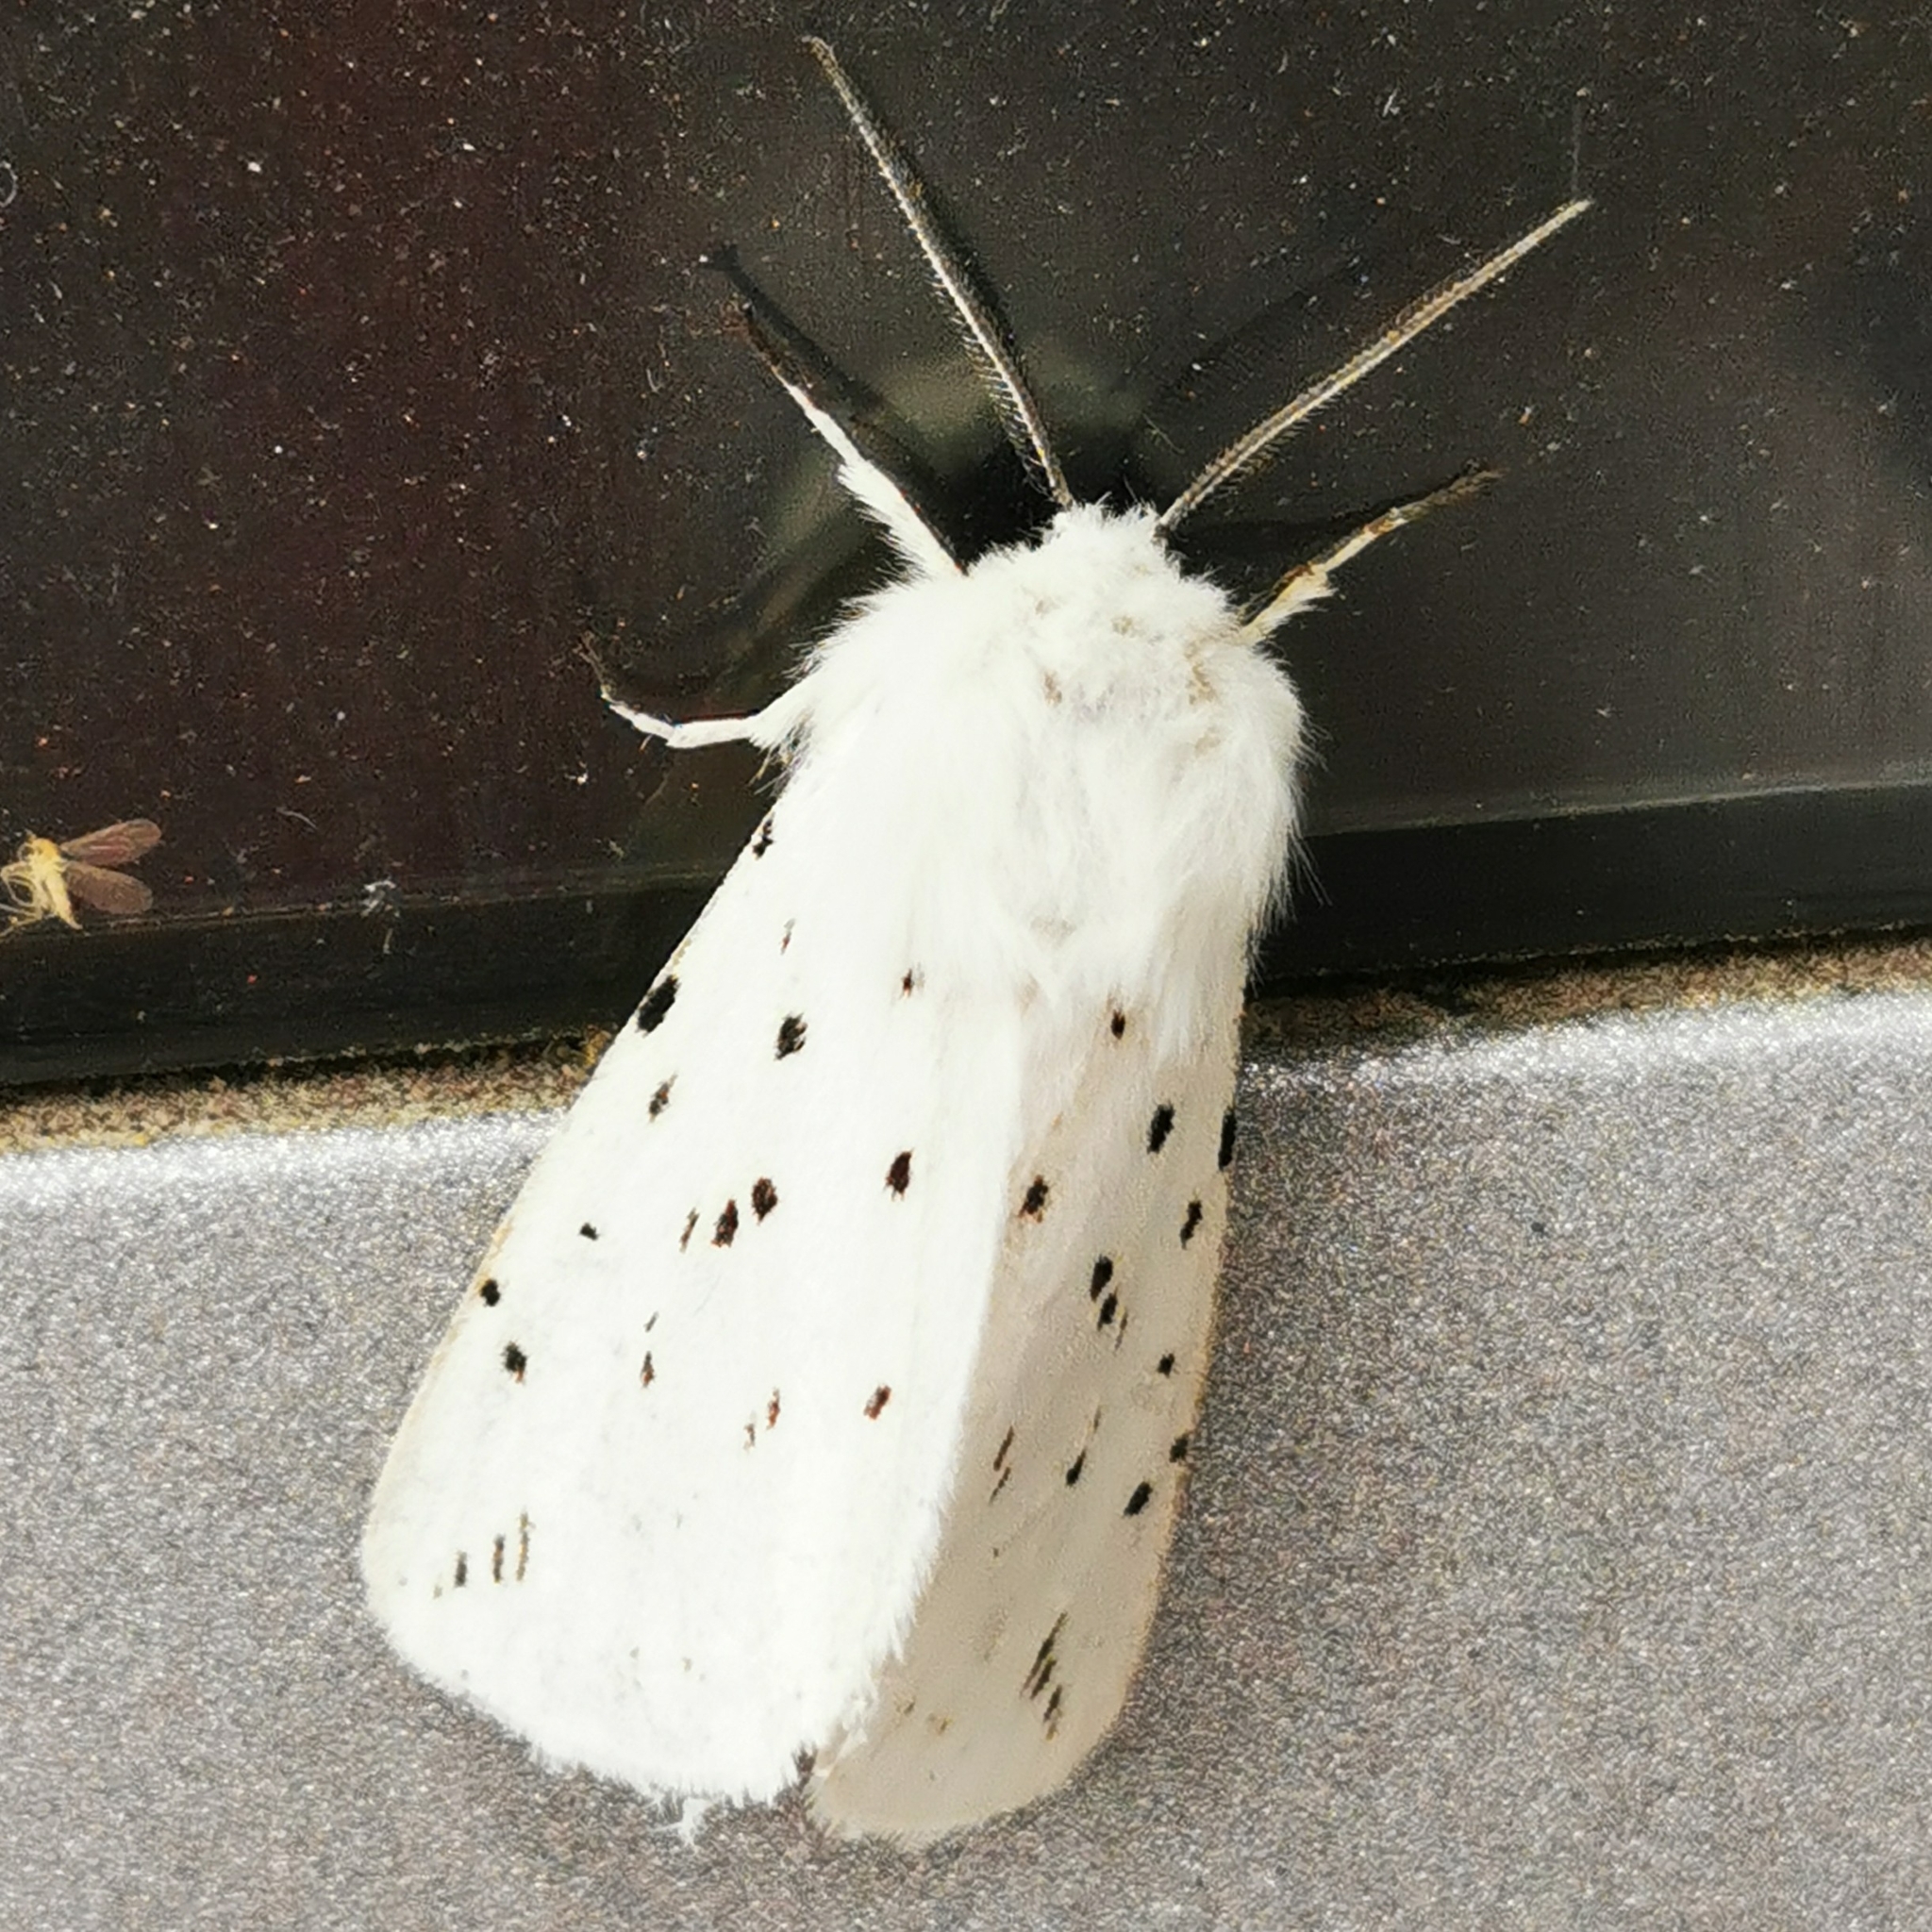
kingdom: Animalia
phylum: Arthropoda
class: Insecta
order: Lepidoptera
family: Erebidae
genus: Spilosoma
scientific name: Spilosoma lubricipeda
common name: White ermine
